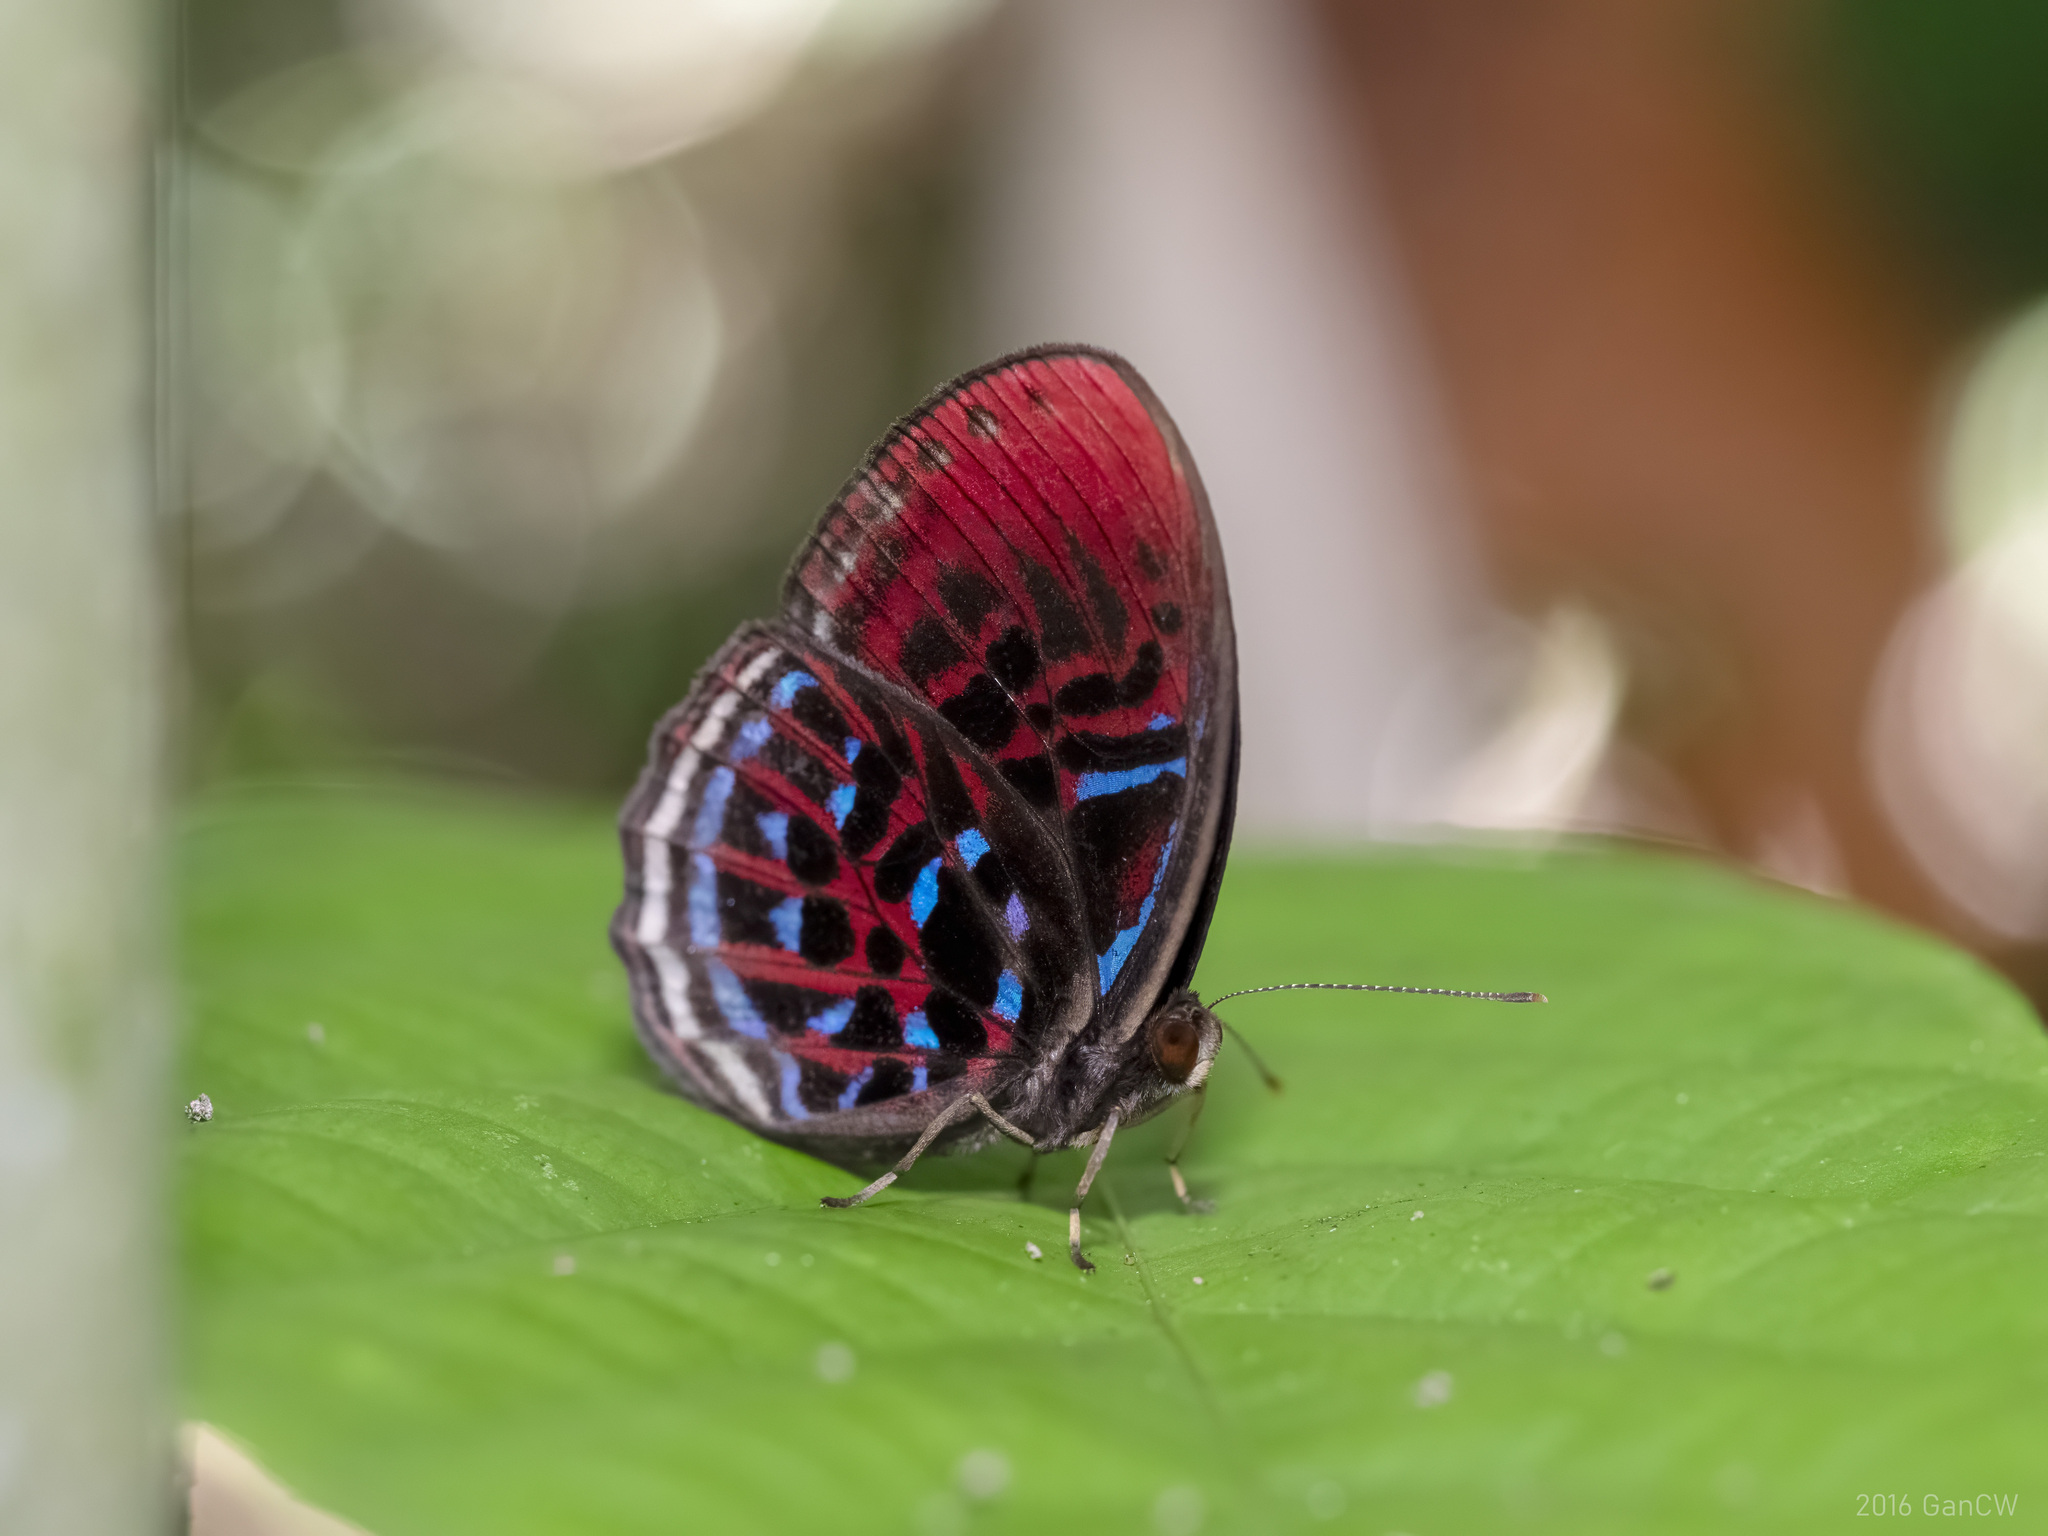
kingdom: Animalia
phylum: Arthropoda
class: Insecta
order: Lepidoptera
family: Riodinidae
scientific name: Riodinidae
